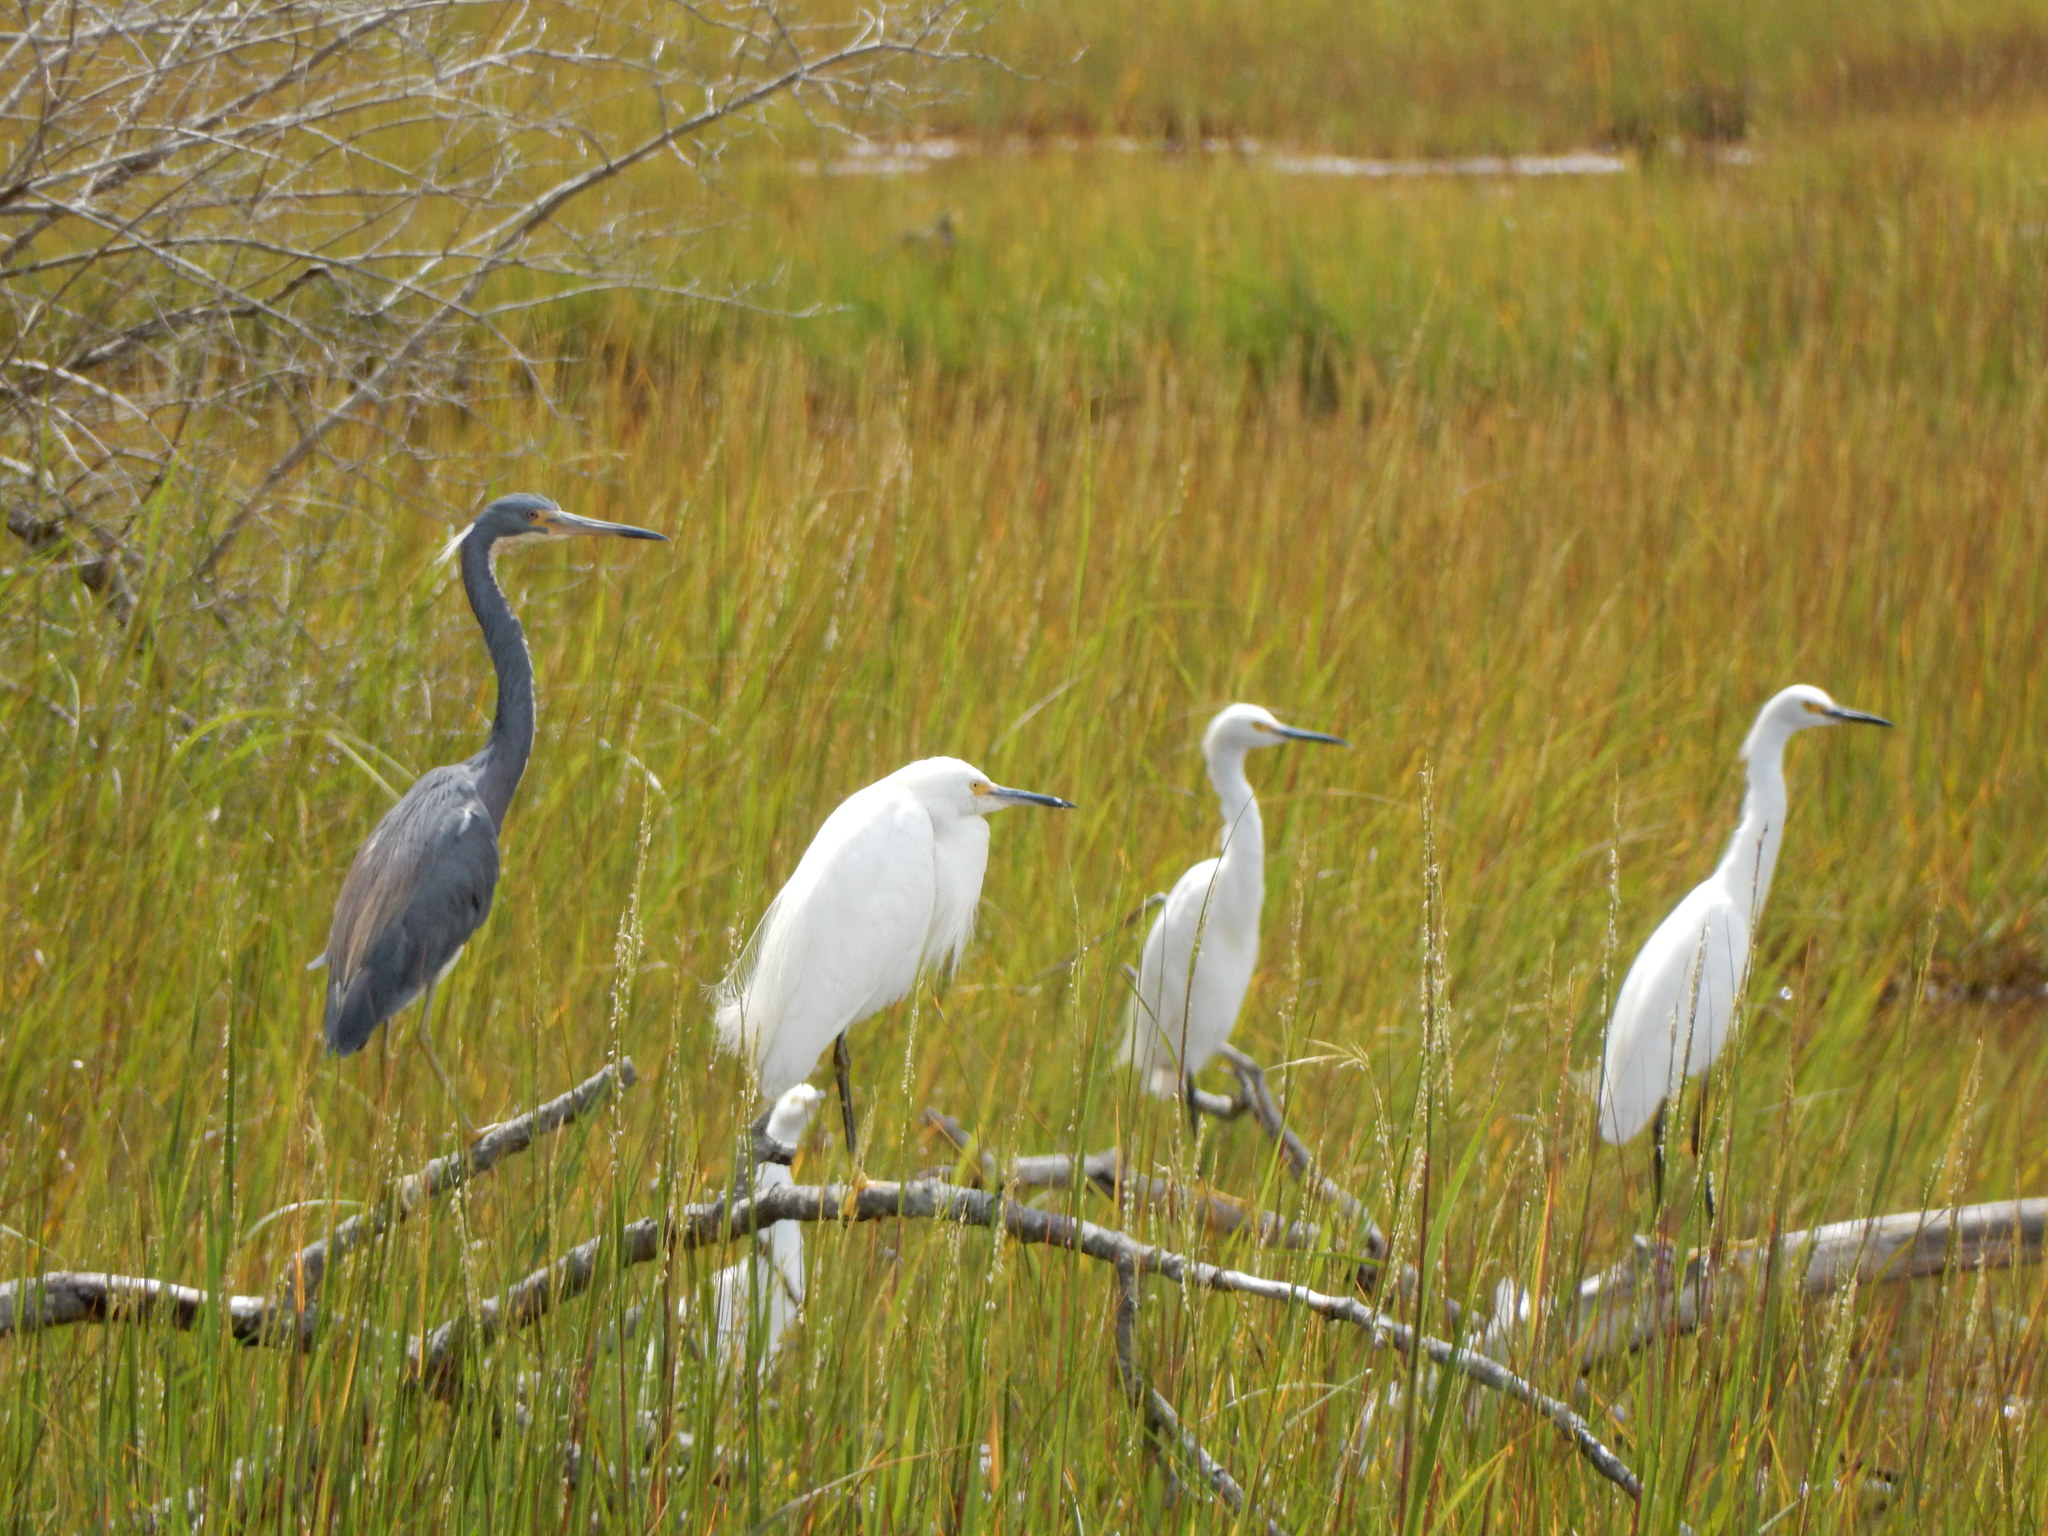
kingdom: Animalia
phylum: Chordata
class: Aves
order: Pelecaniformes
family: Ardeidae
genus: Egretta
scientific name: Egretta tricolor
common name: Tricolored heron
